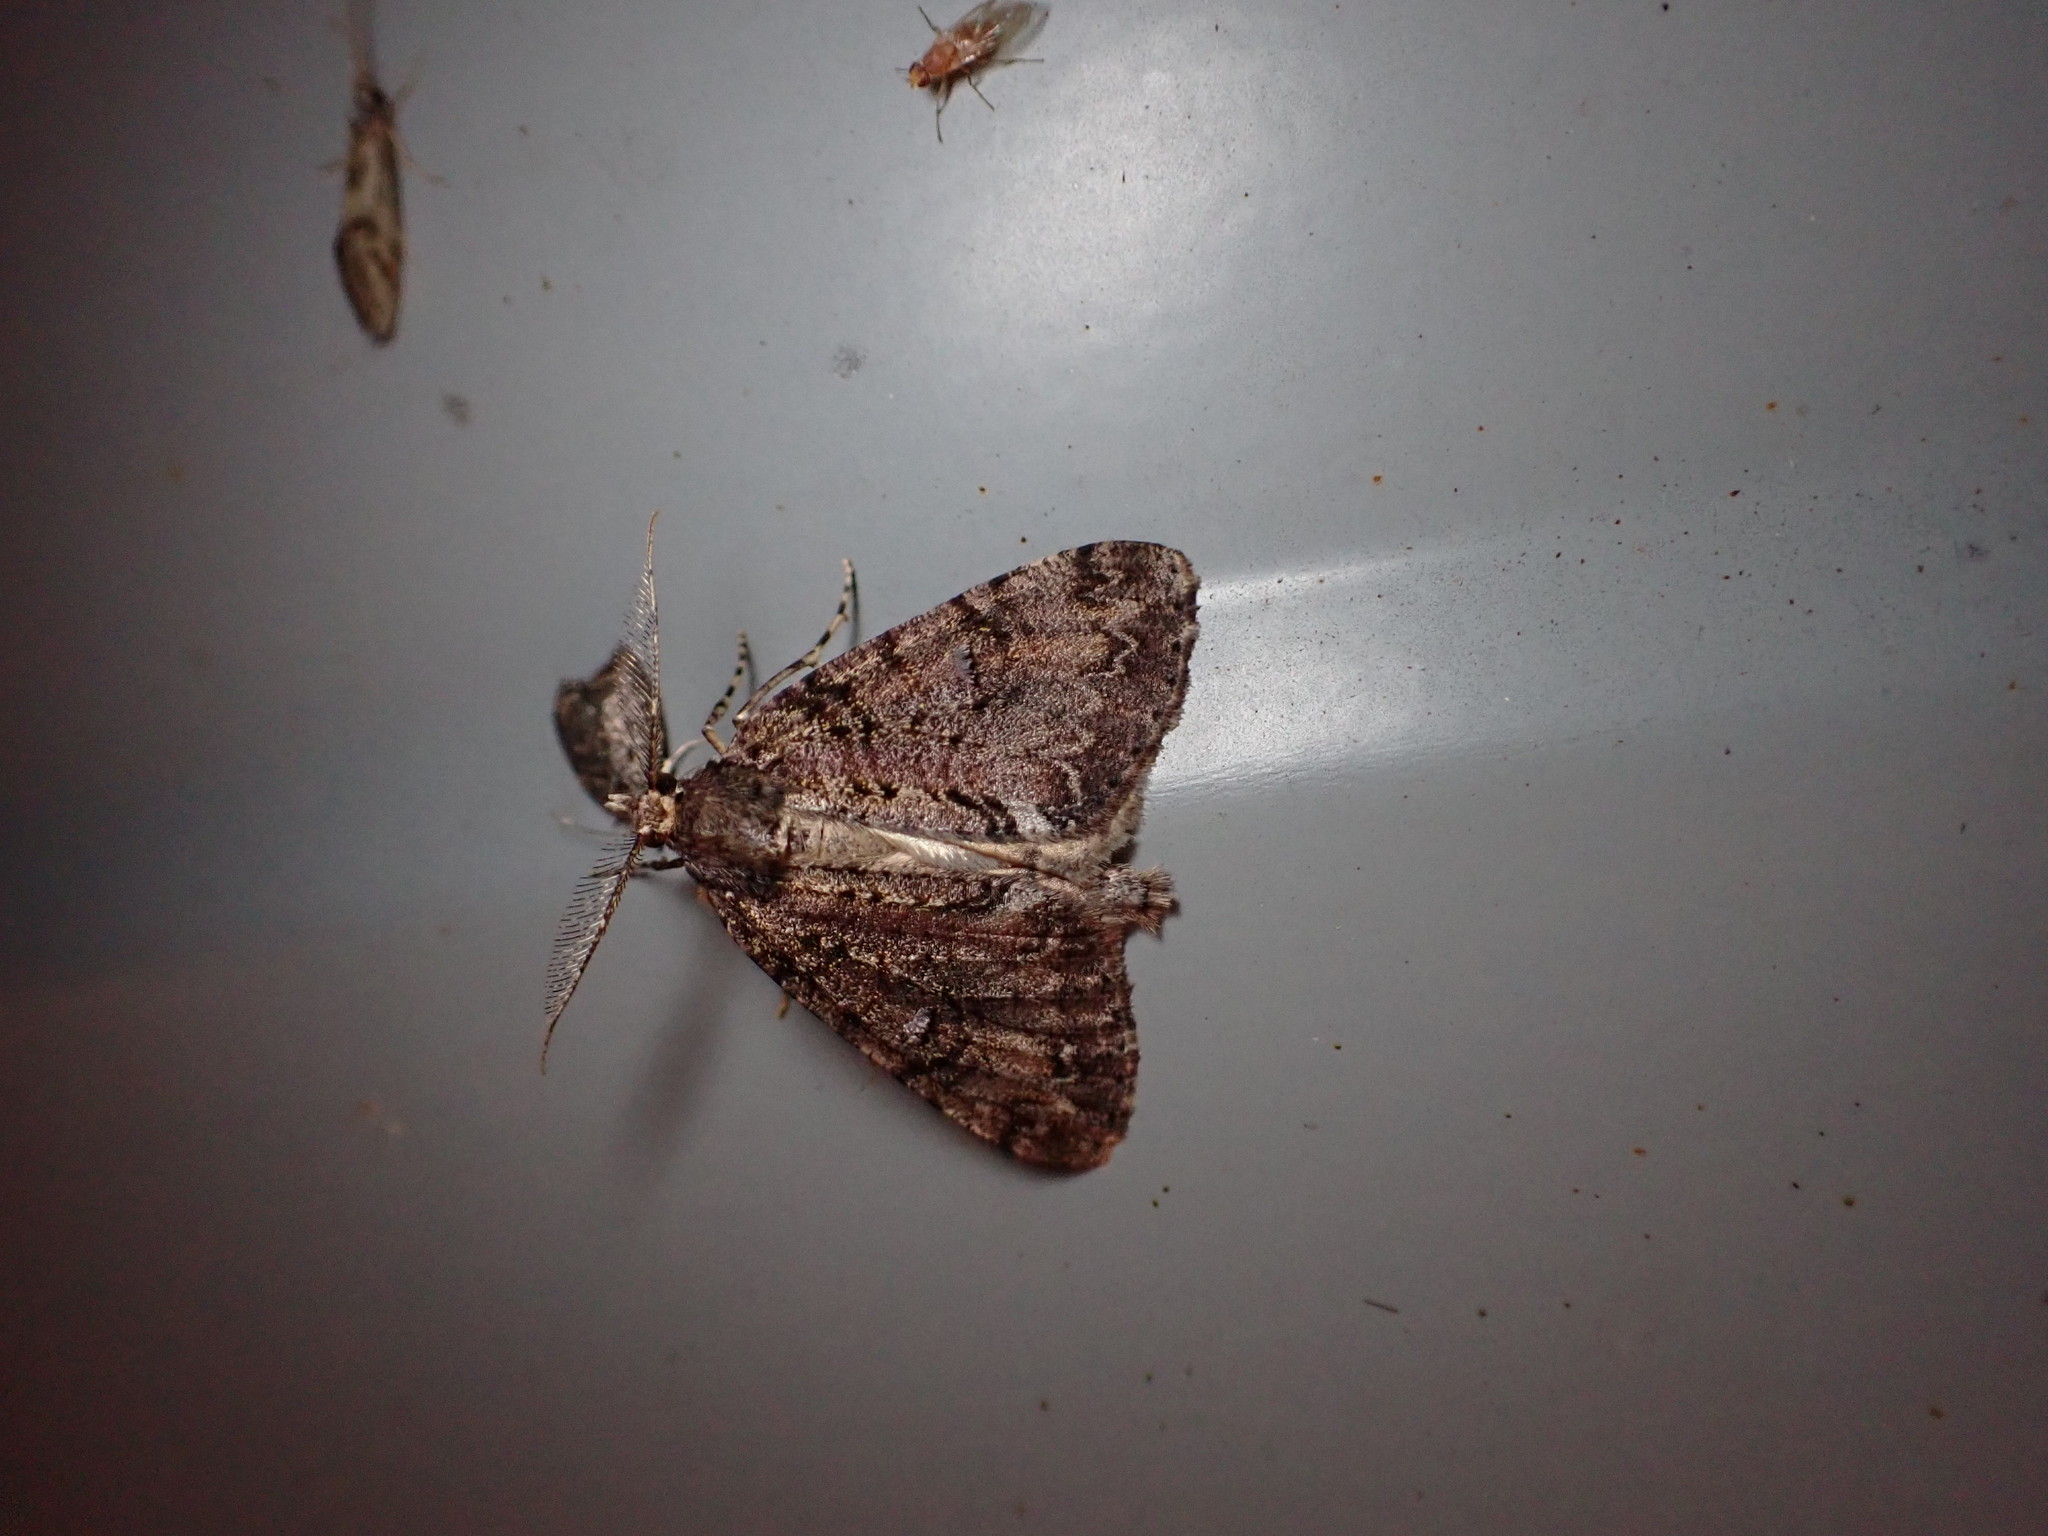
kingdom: Animalia
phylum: Arthropoda
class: Insecta
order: Lepidoptera
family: Geometridae
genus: Pseudocoremia
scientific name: Pseudocoremia suavis
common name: Common forest looper
